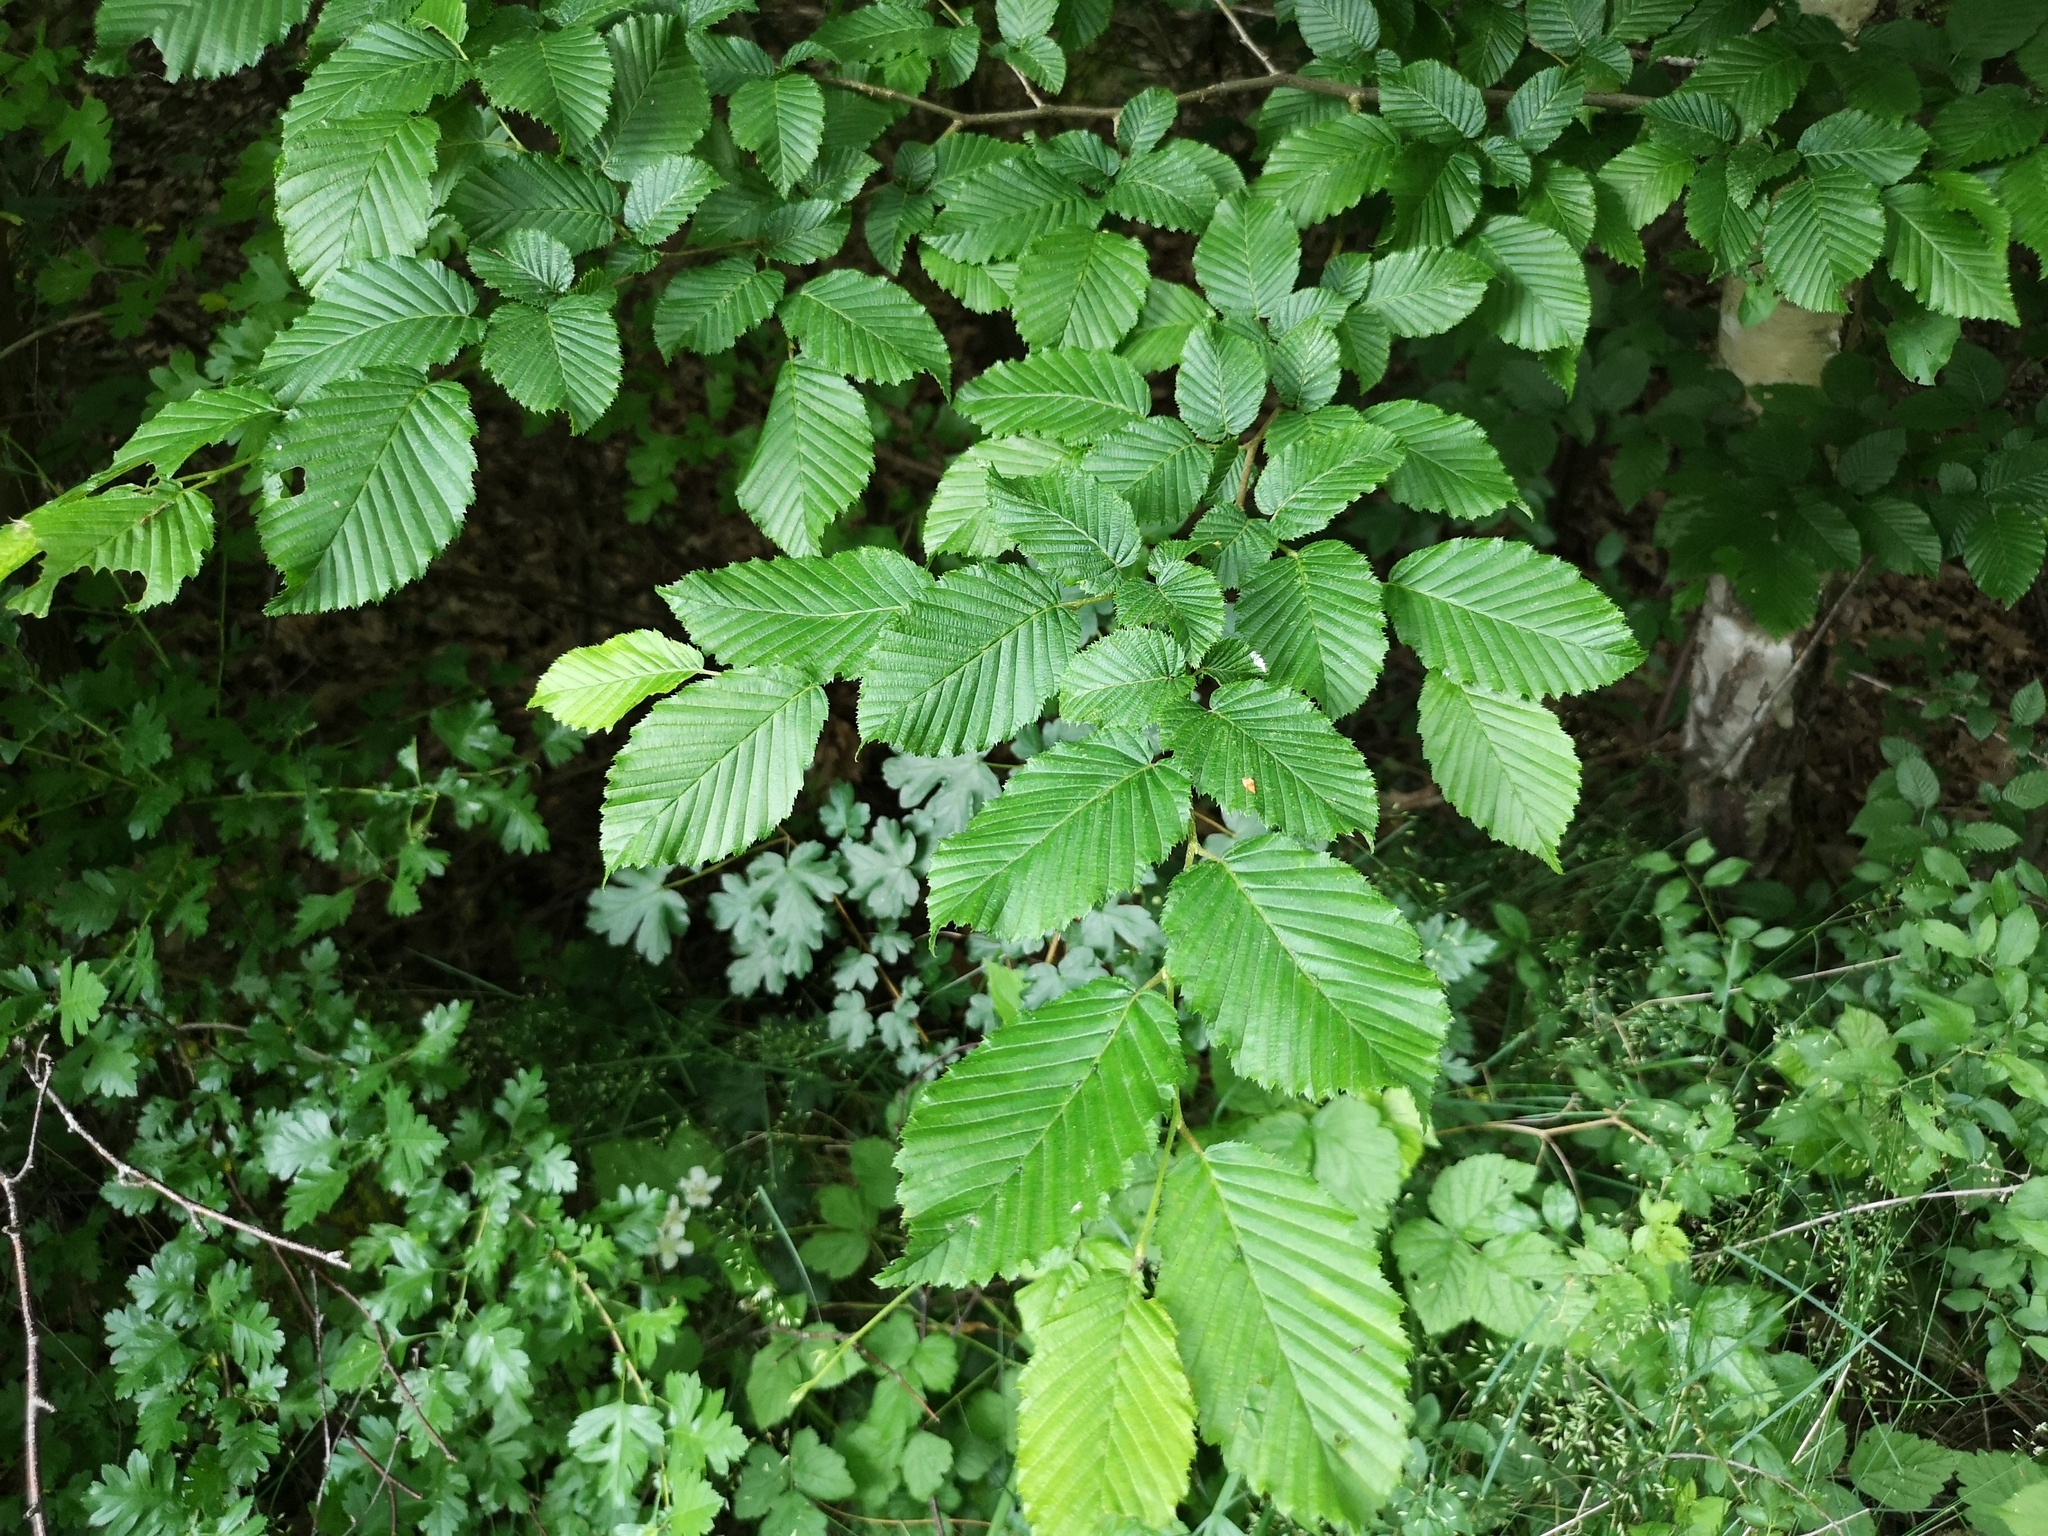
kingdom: Plantae
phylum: Tracheophyta
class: Magnoliopsida
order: Fagales
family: Betulaceae
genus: Carpinus
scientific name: Carpinus betulus
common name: Hornbeam
